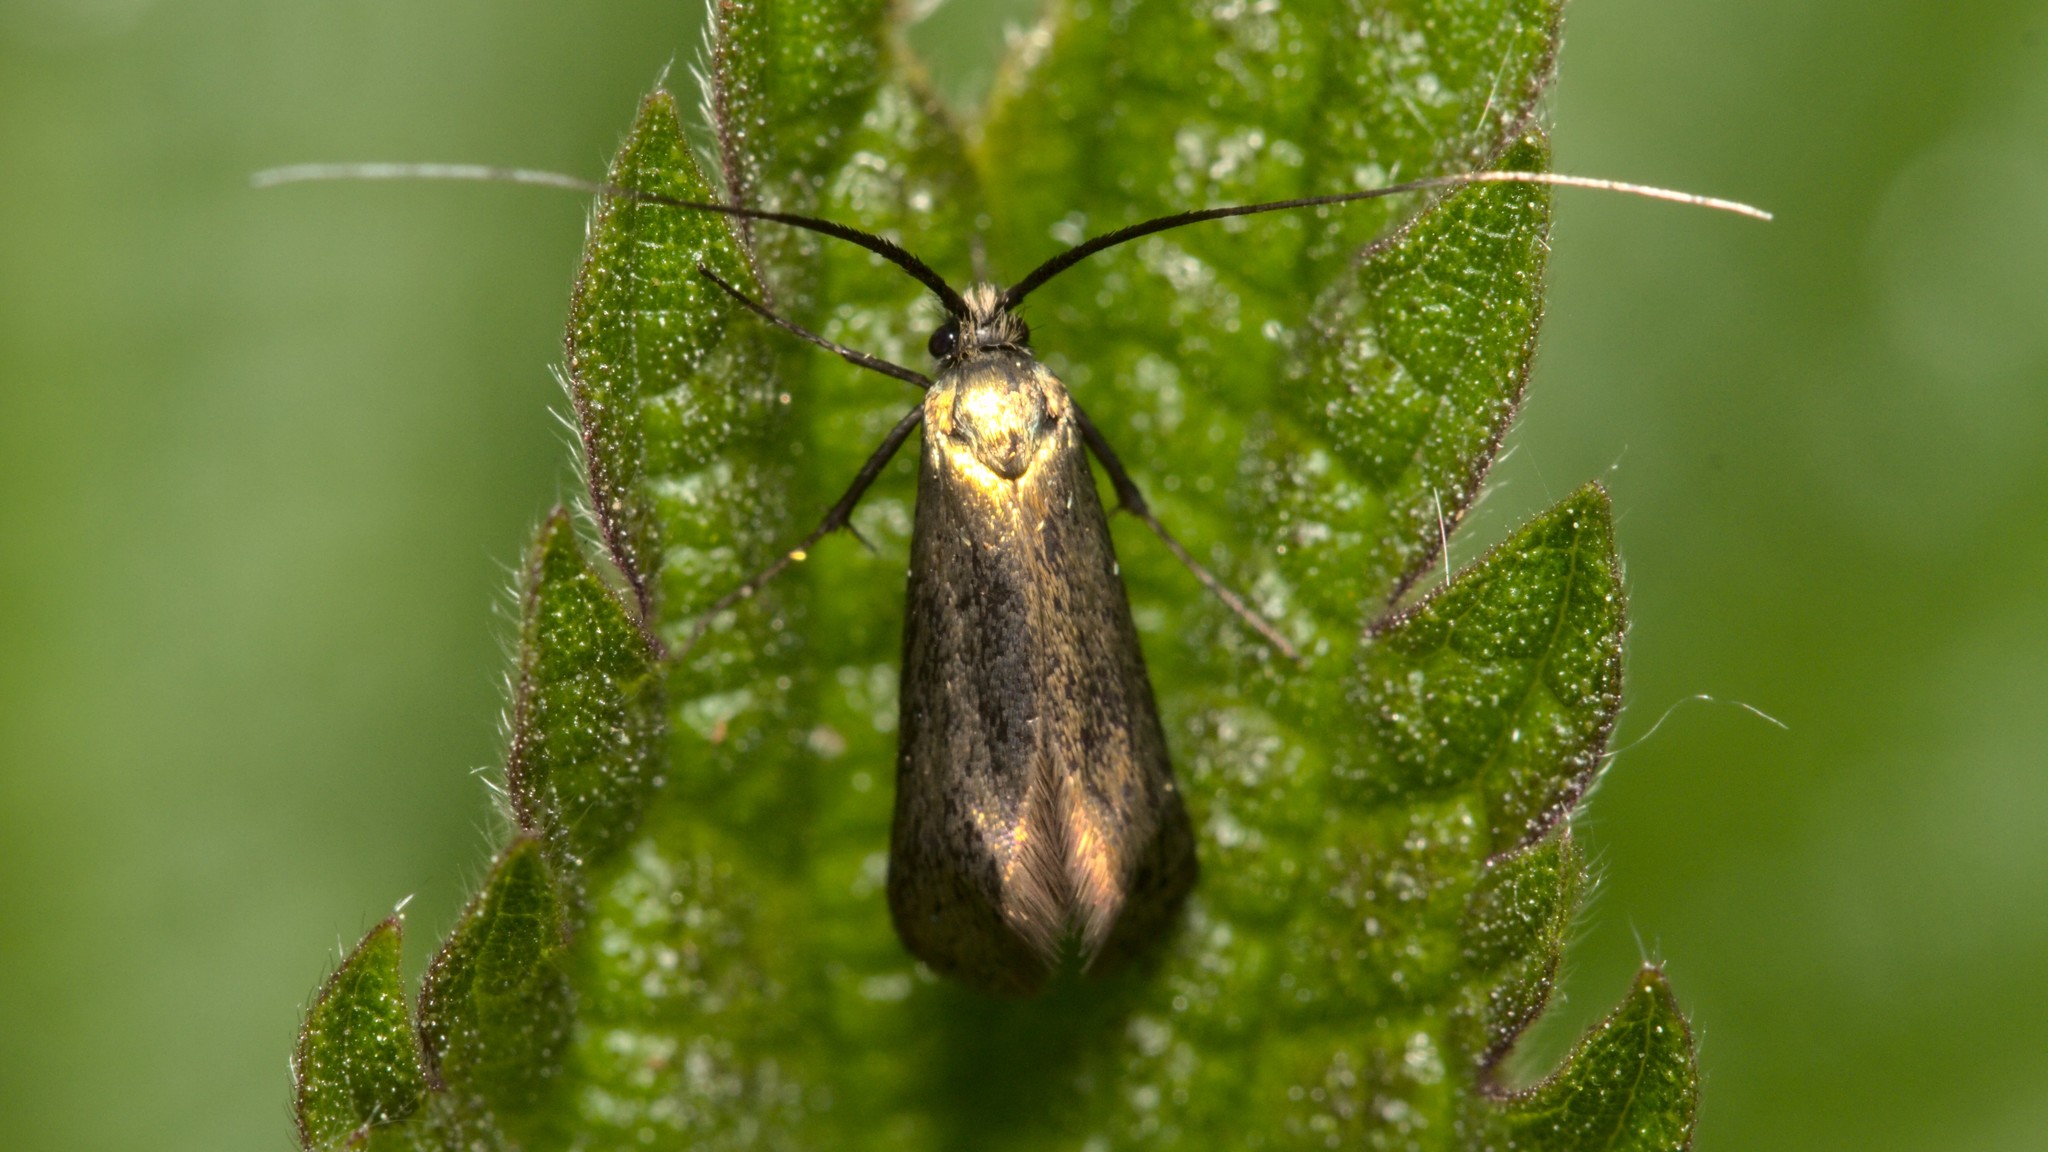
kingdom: Animalia
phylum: Arthropoda
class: Insecta
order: Lepidoptera
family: Adelidae
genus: Adela
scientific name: Adela viridella
